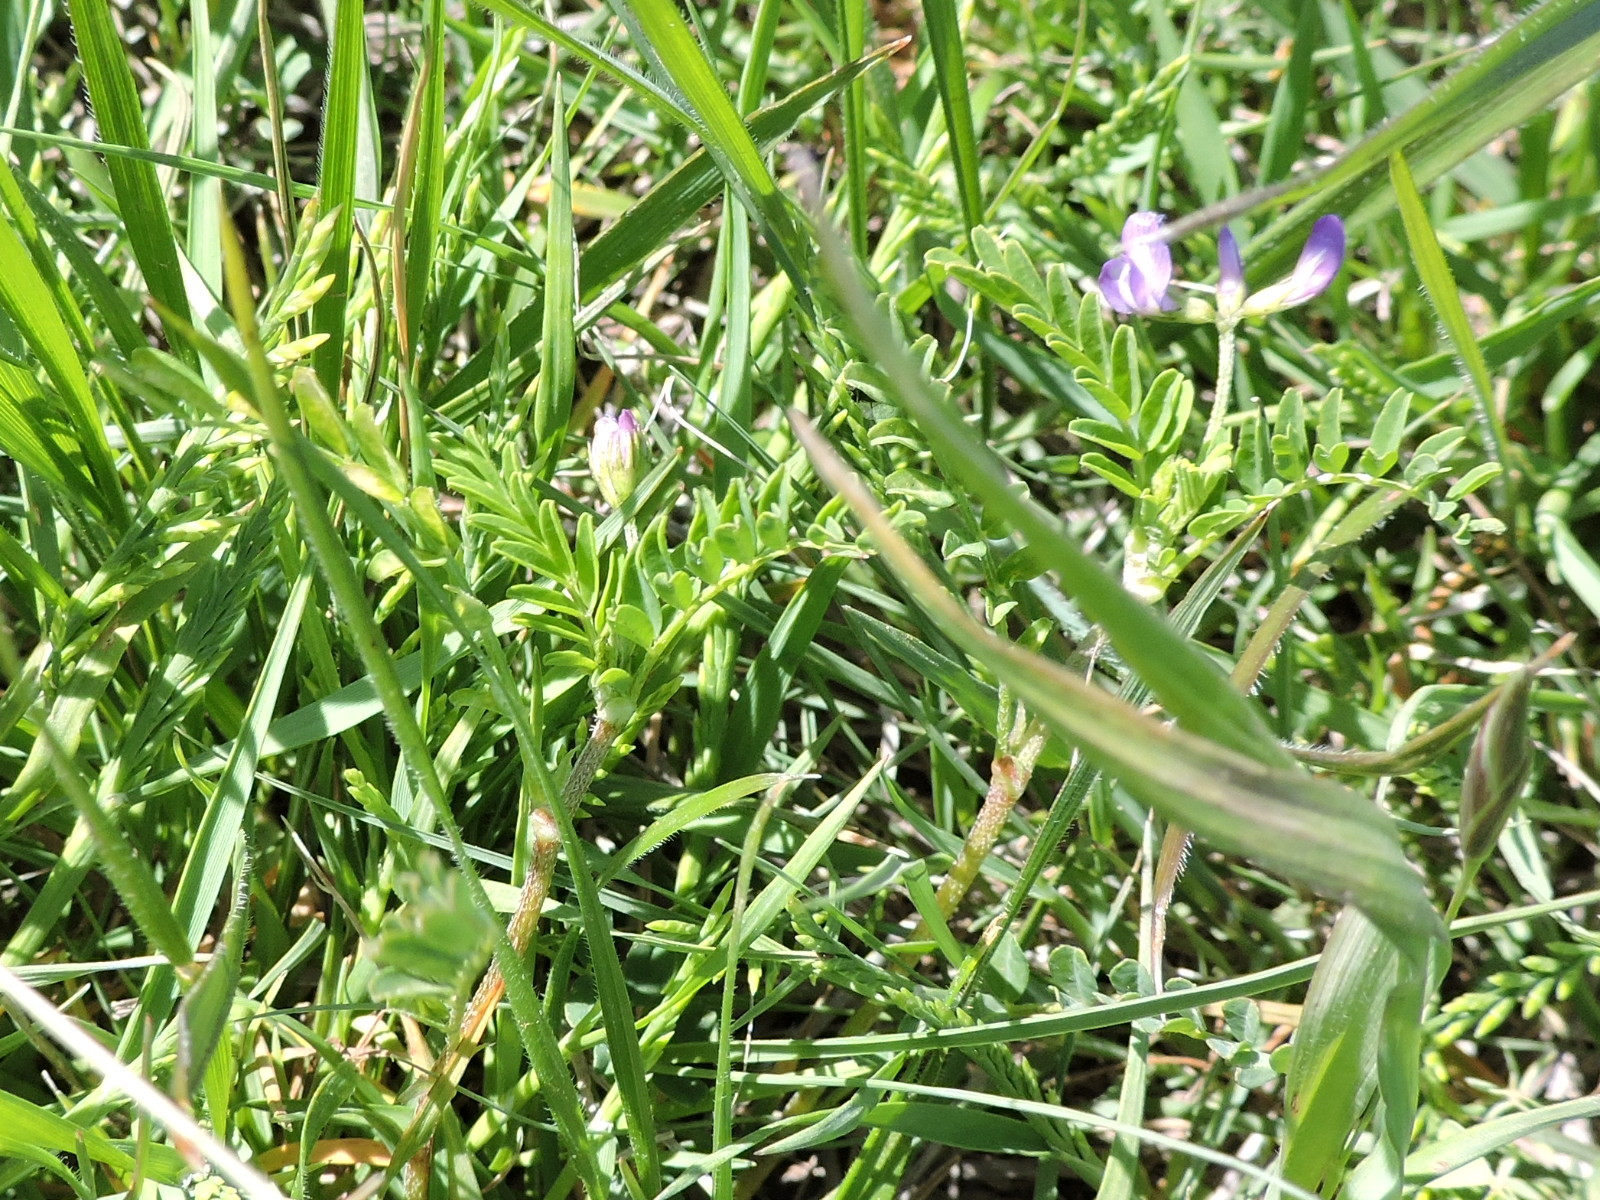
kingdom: Plantae
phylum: Tracheophyta
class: Magnoliopsida
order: Fabales
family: Fabaceae
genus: Astragalus
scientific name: Astragalus nuttallianus
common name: Smallflowered milkvetch
